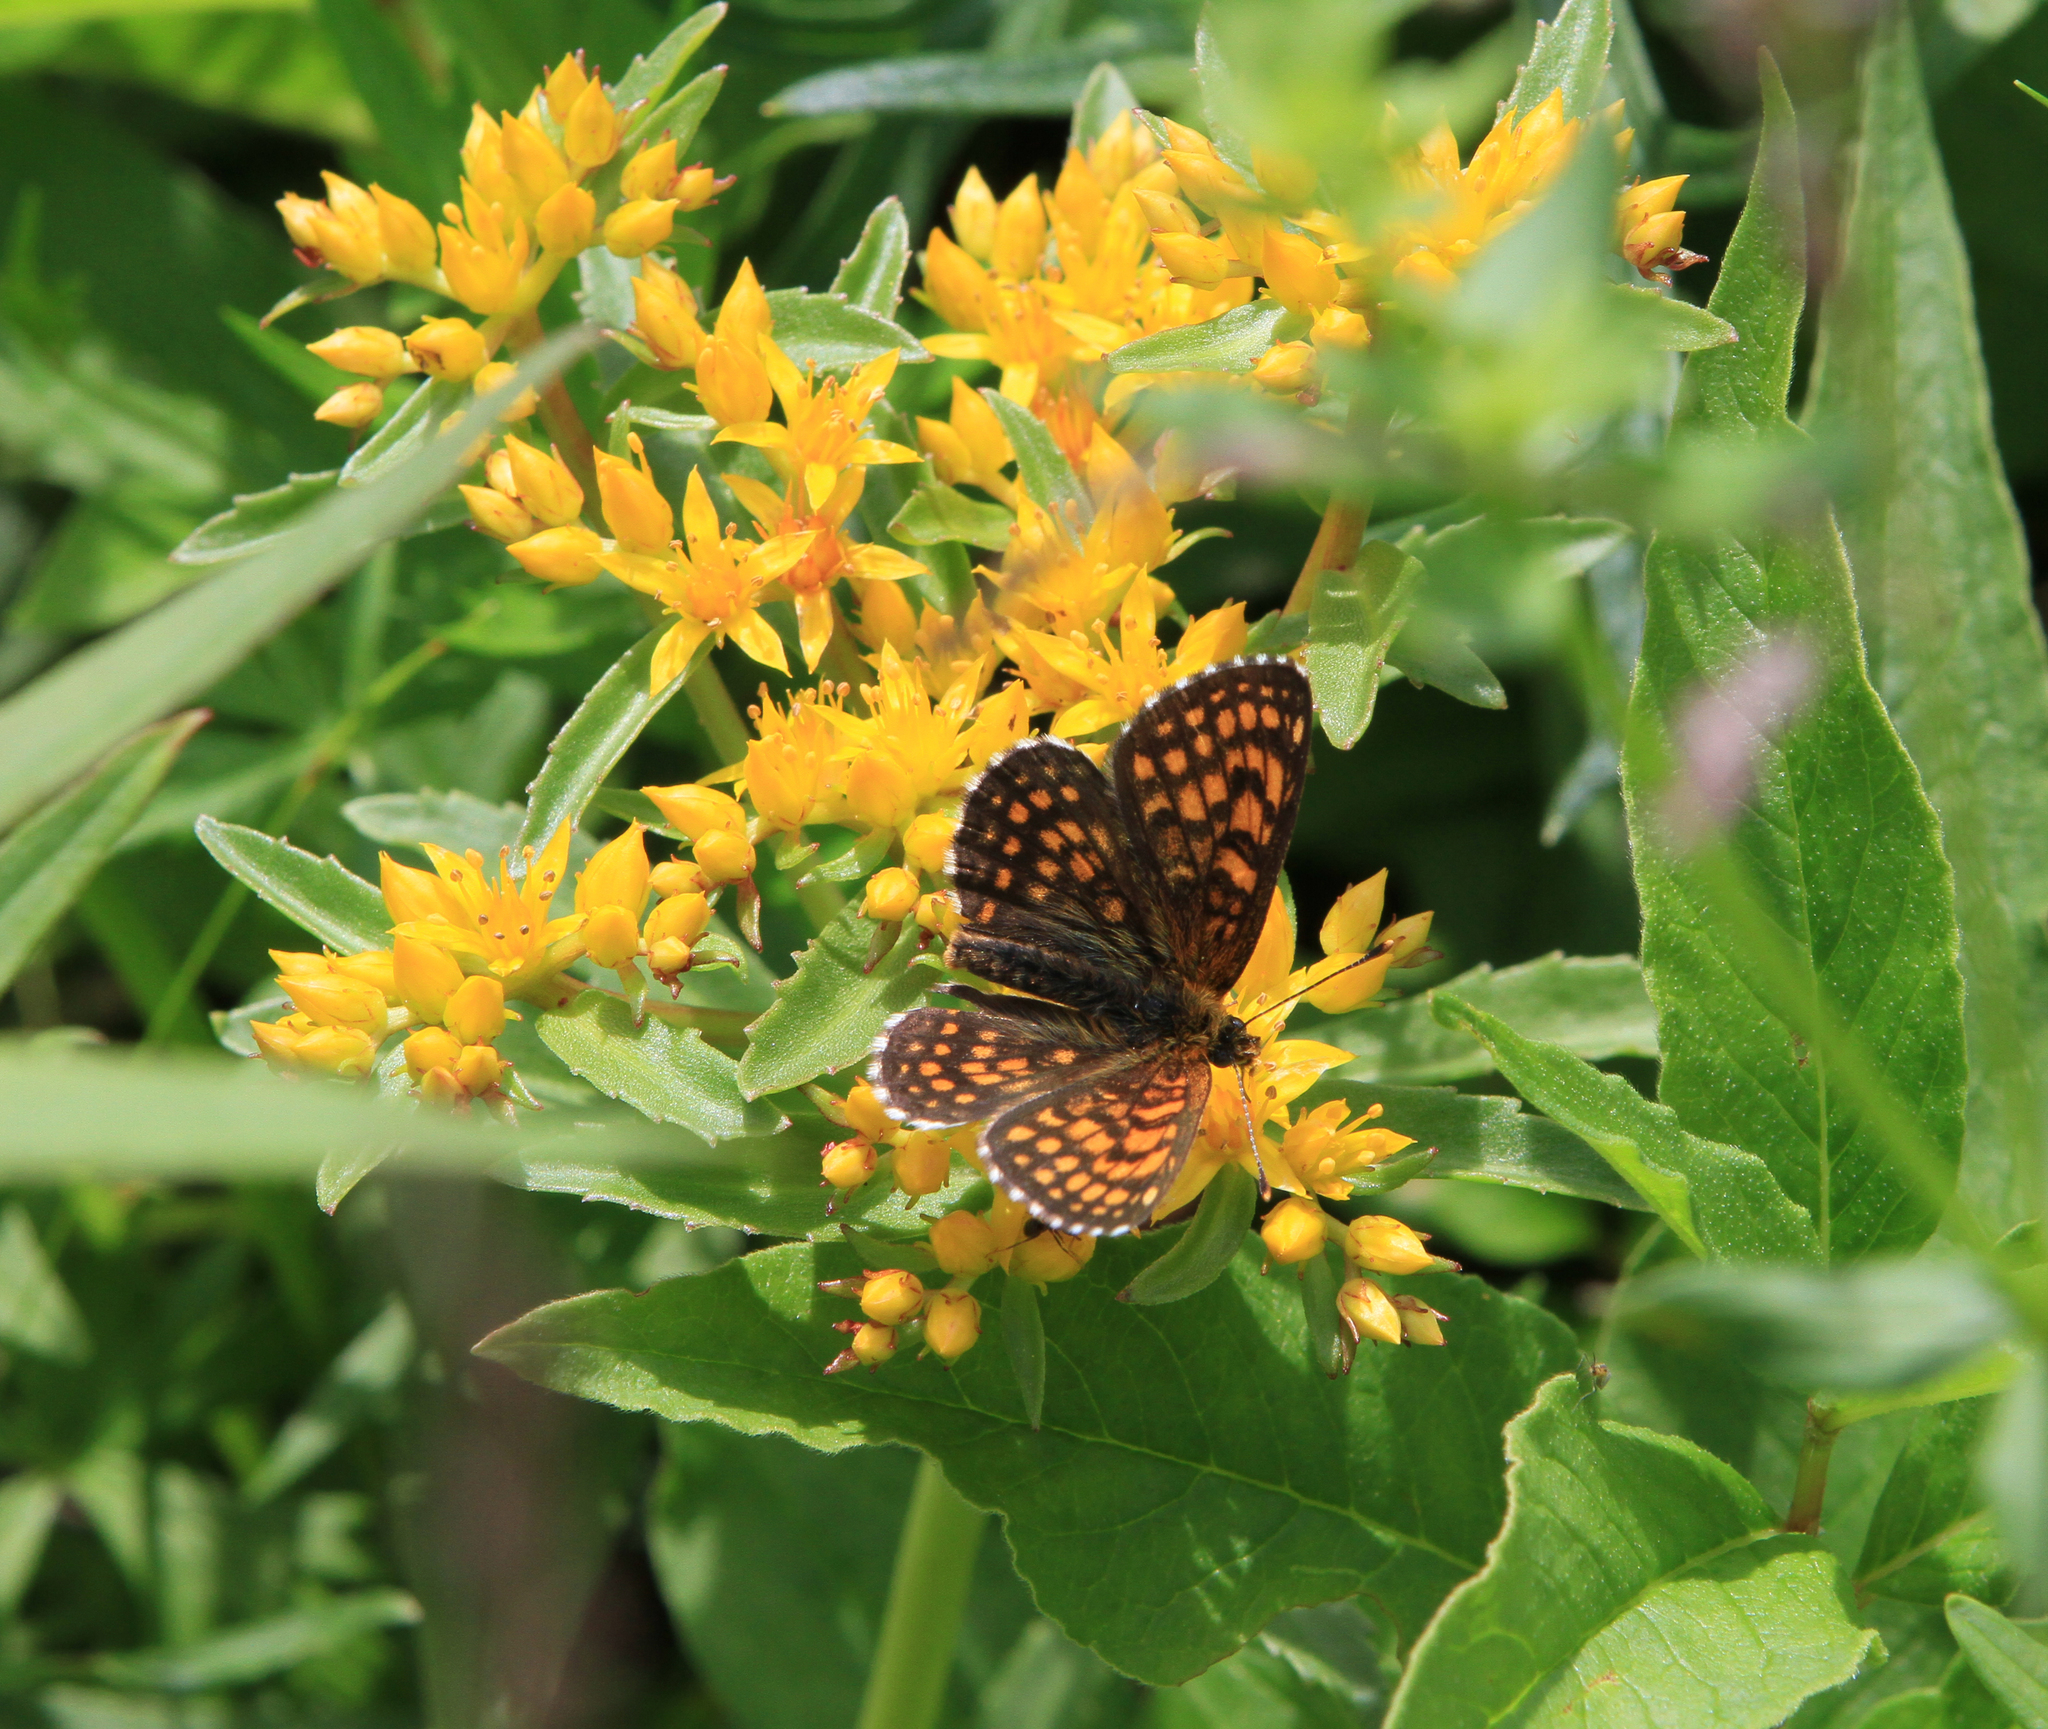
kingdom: Plantae
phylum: Tracheophyta
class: Magnoliopsida
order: Saxifragales
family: Crassulaceae
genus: Phedimus
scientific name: Phedimus aizoon
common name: Orpin aizoon
